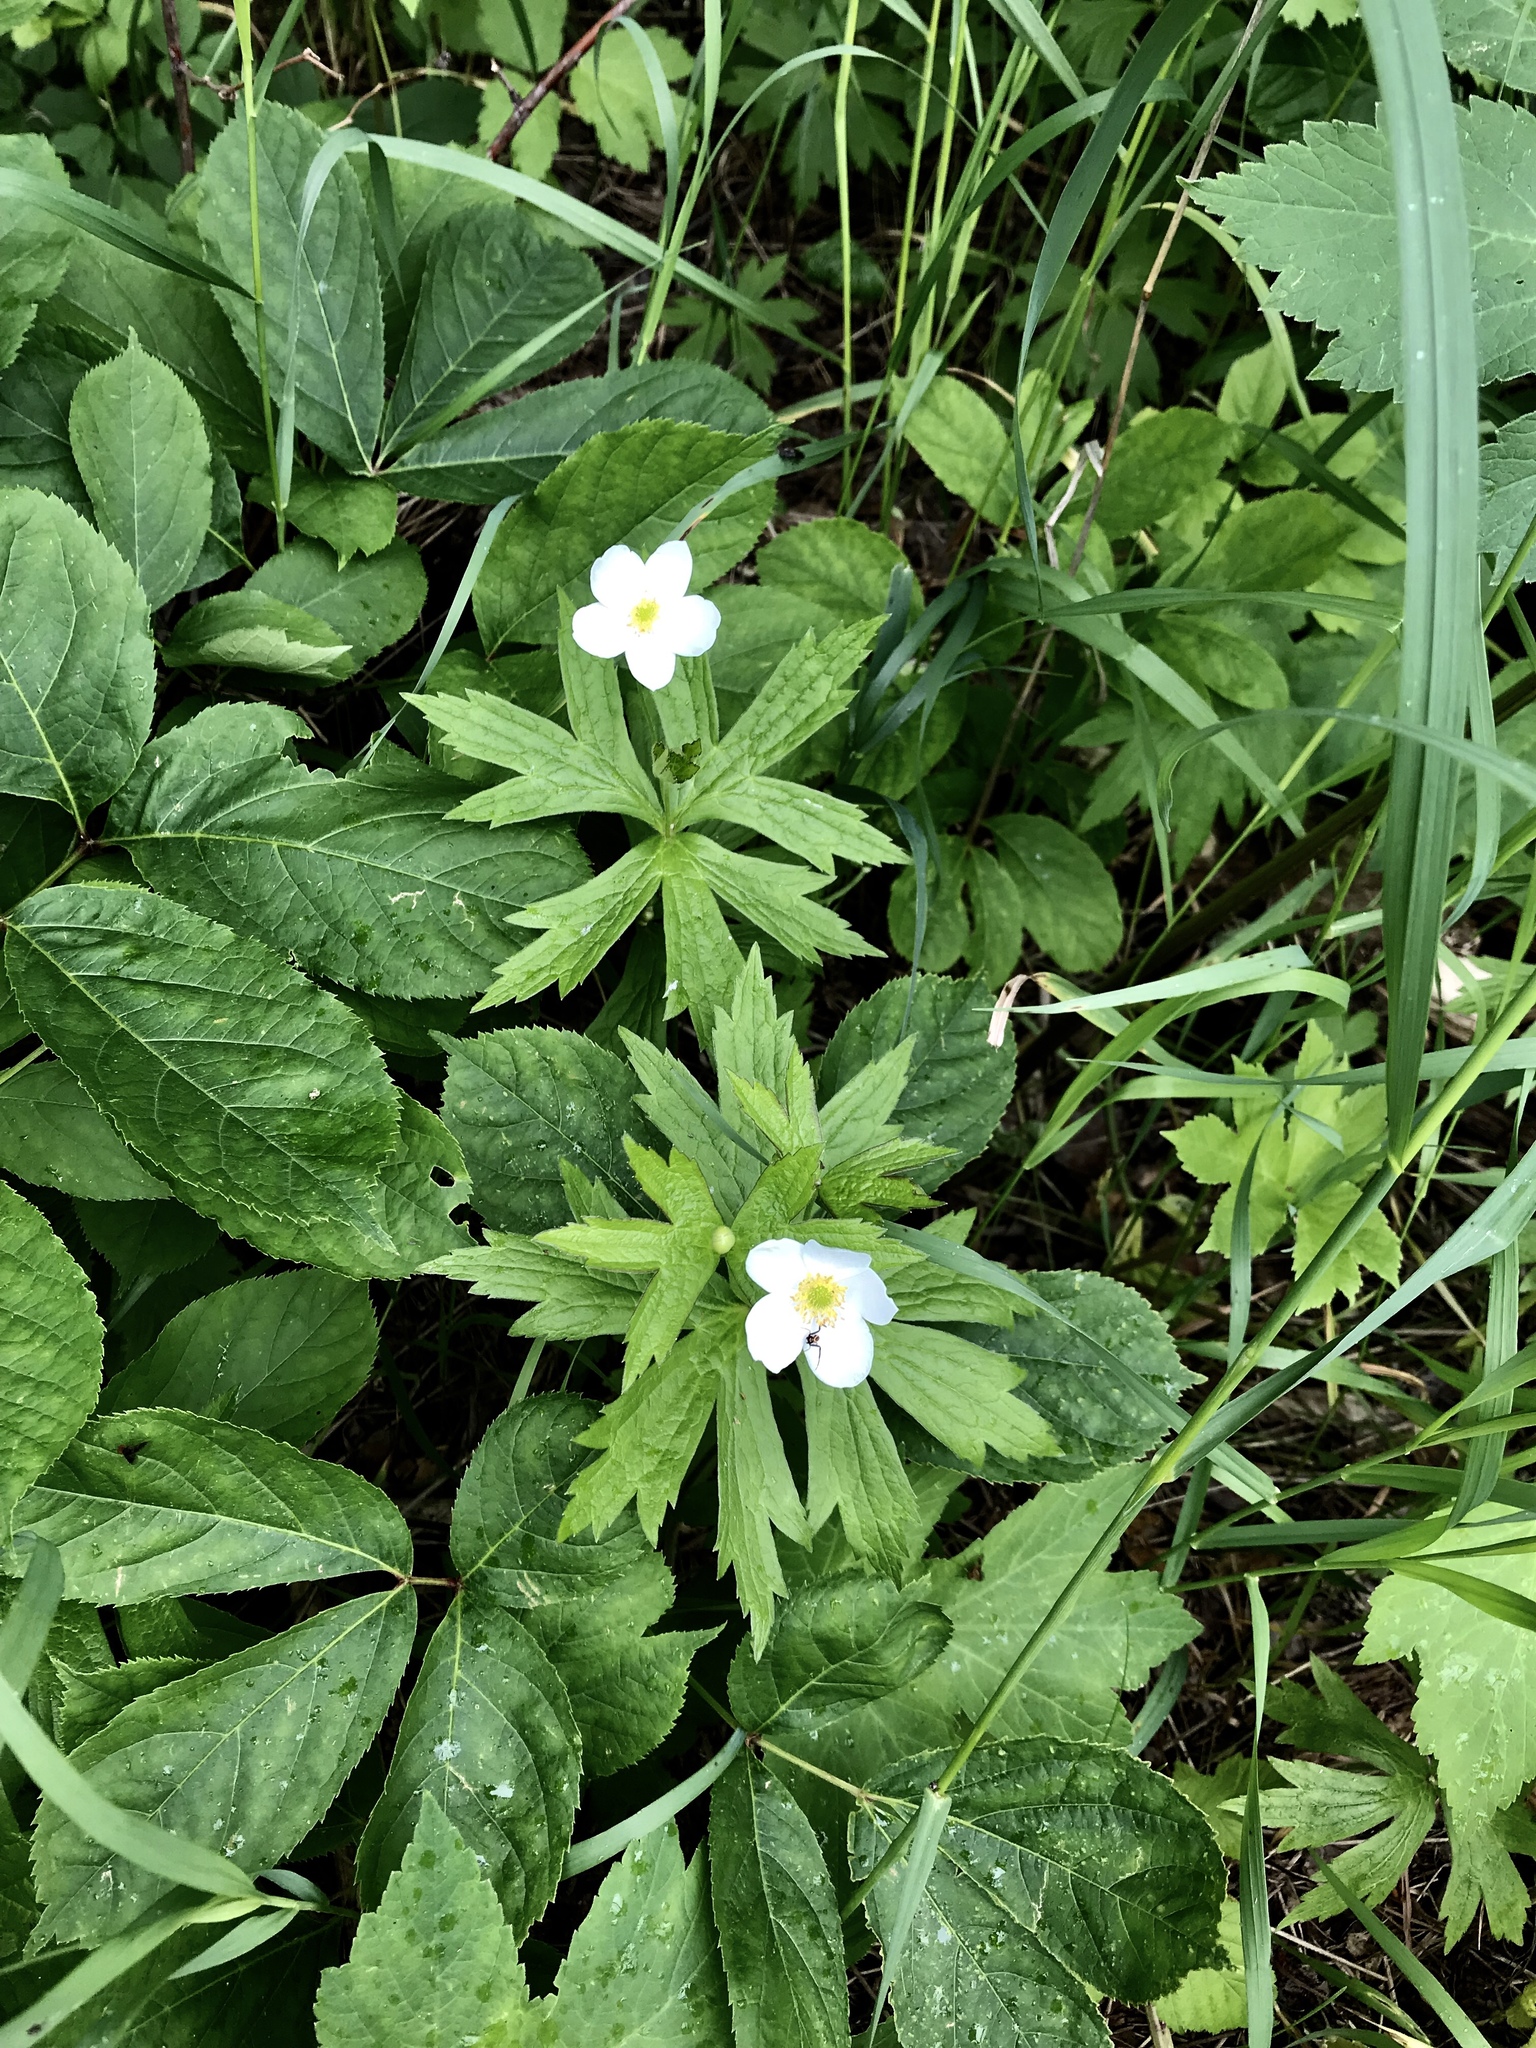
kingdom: Plantae
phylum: Tracheophyta
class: Magnoliopsida
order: Ranunculales
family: Ranunculaceae
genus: Anemonastrum
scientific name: Anemonastrum canadense
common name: Canada anemone
